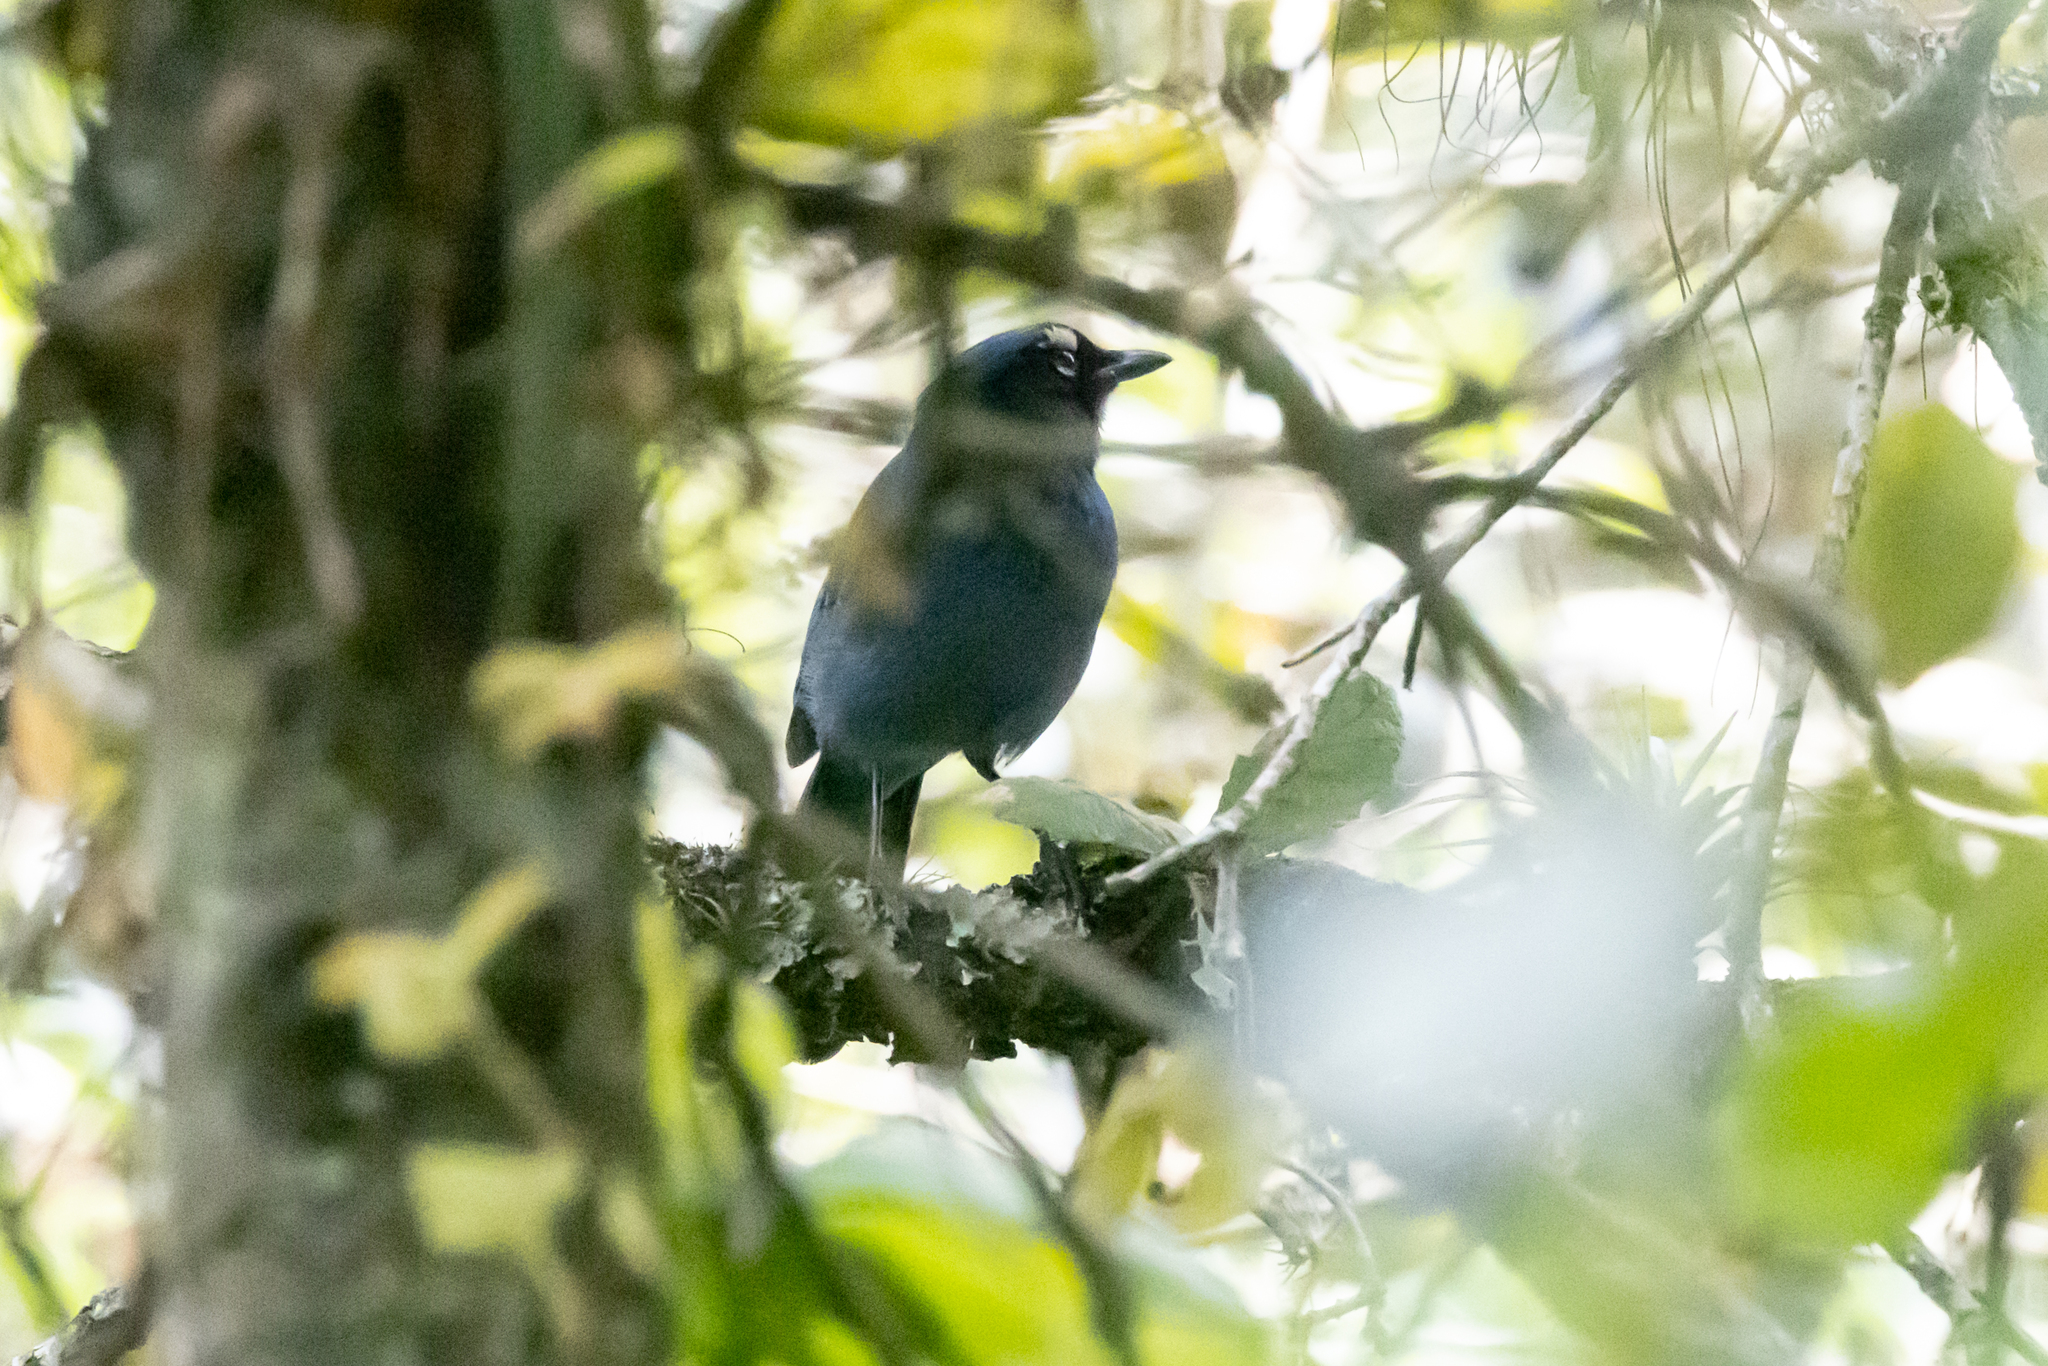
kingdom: Animalia
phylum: Chordata
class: Aves
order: Passeriformes
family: Corvidae
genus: Cyanocitta
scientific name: Cyanocitta stelleri
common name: Steller's jay
